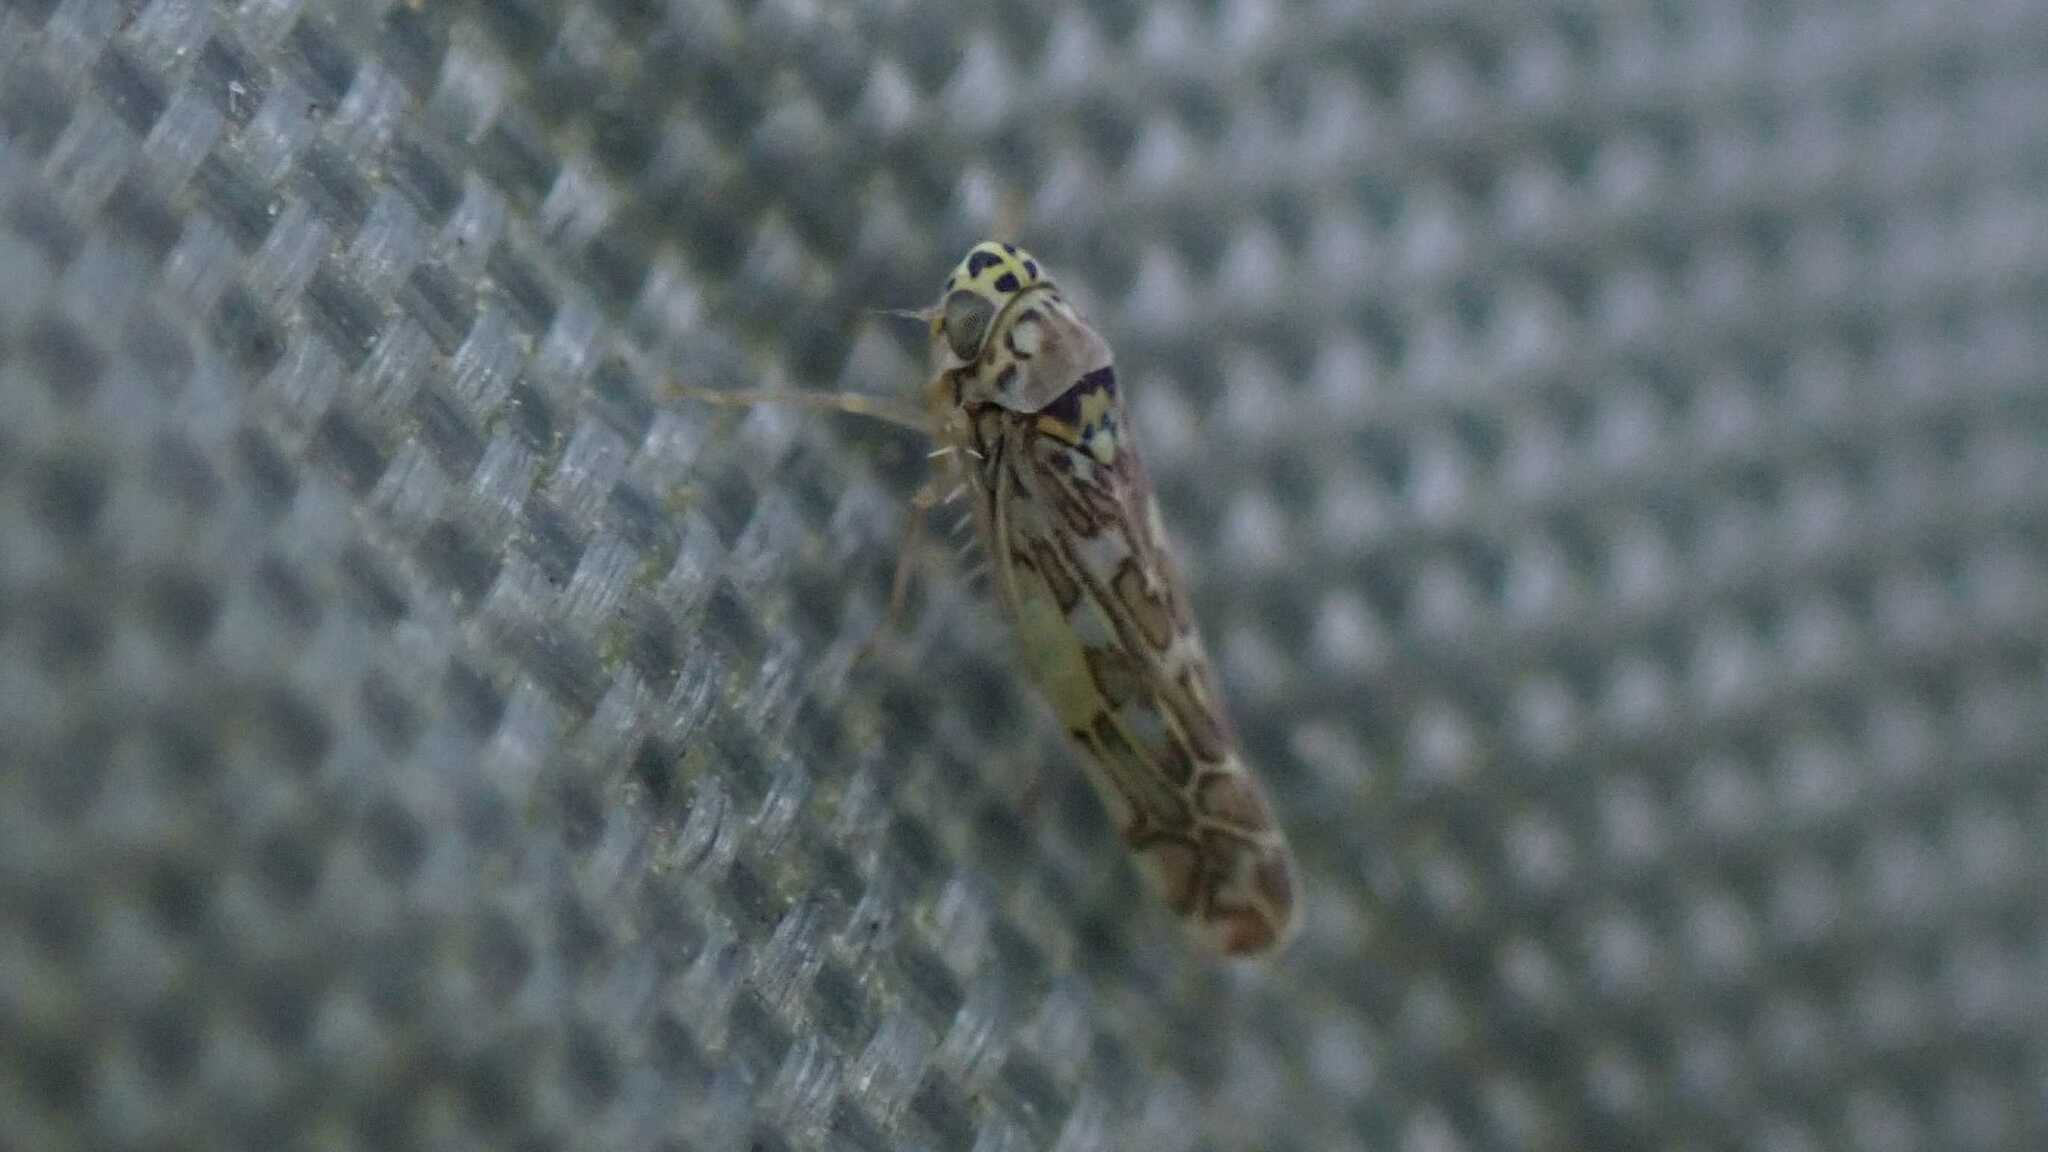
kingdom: Animalia
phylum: Arthropoda
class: Insecta
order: Hemiptera
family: Cicadellidae
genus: Eupteryx
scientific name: Eupteryx decemnotata
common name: Ligurian leafhopper
